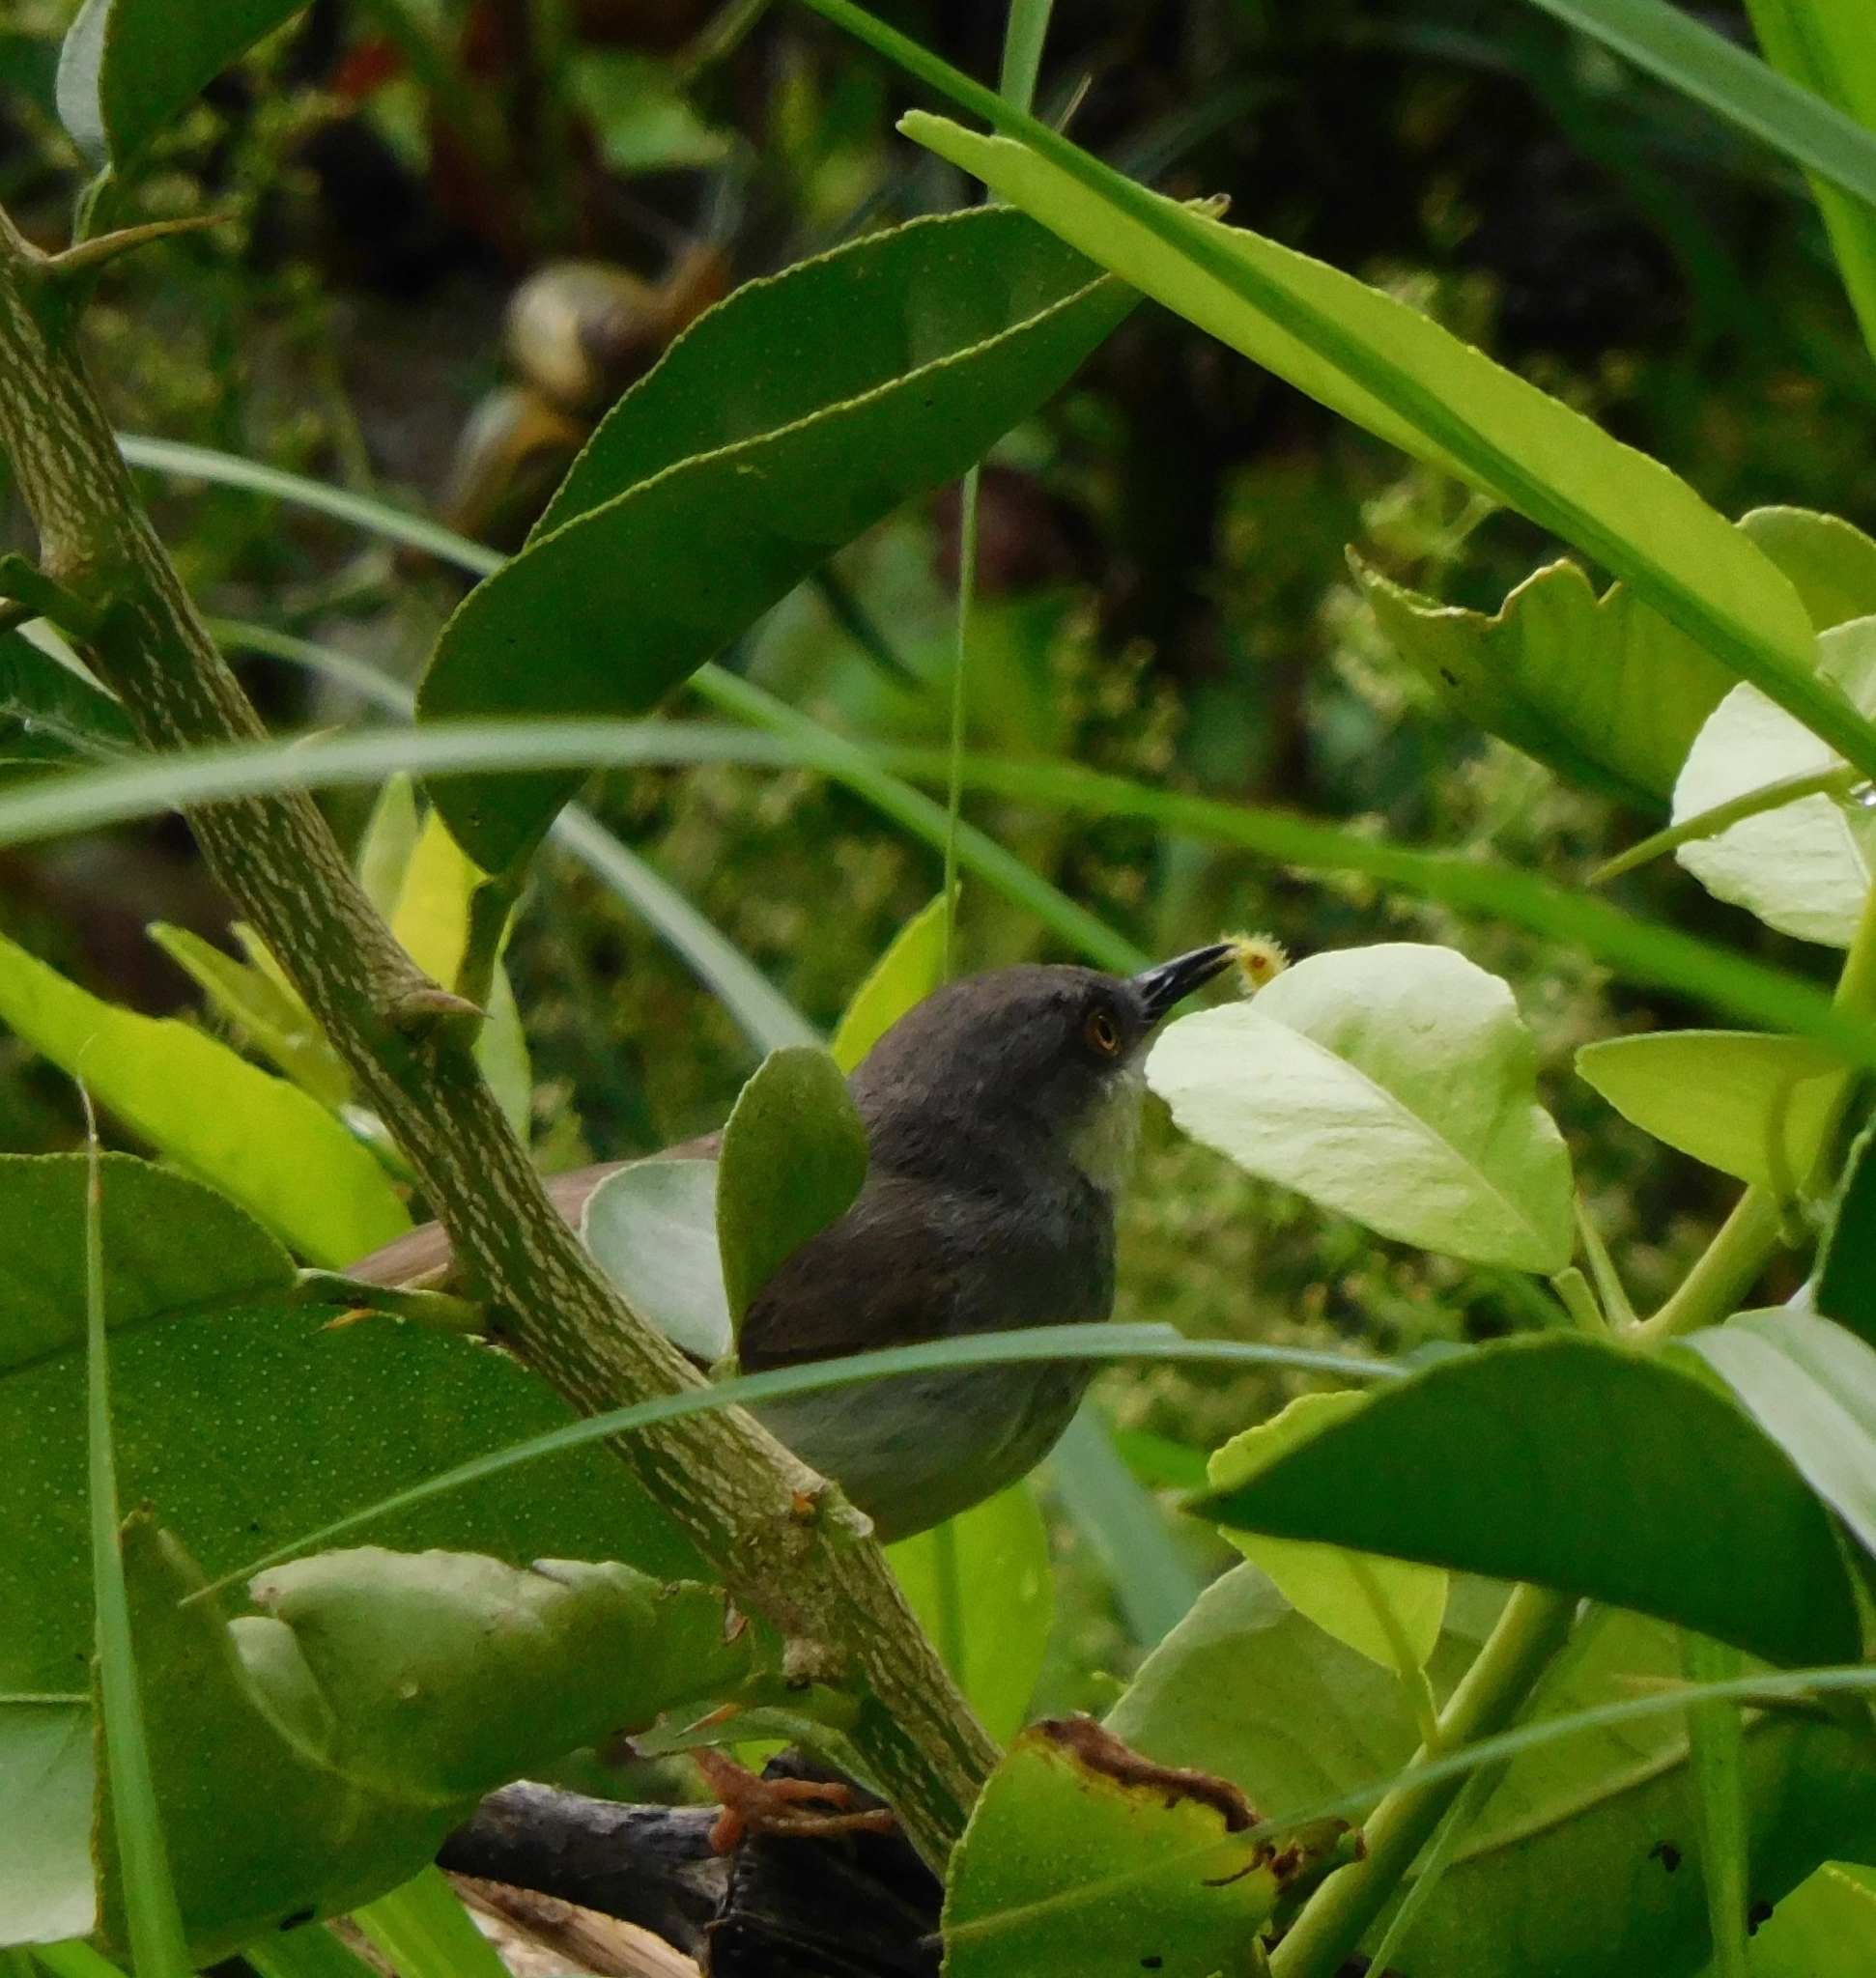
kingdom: Animalia
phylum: Chordata
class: Aves
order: Passeriformes
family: Cisticolidae
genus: Prinia
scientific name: Prinia hodgsonii
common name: Grey-breasted prinia
